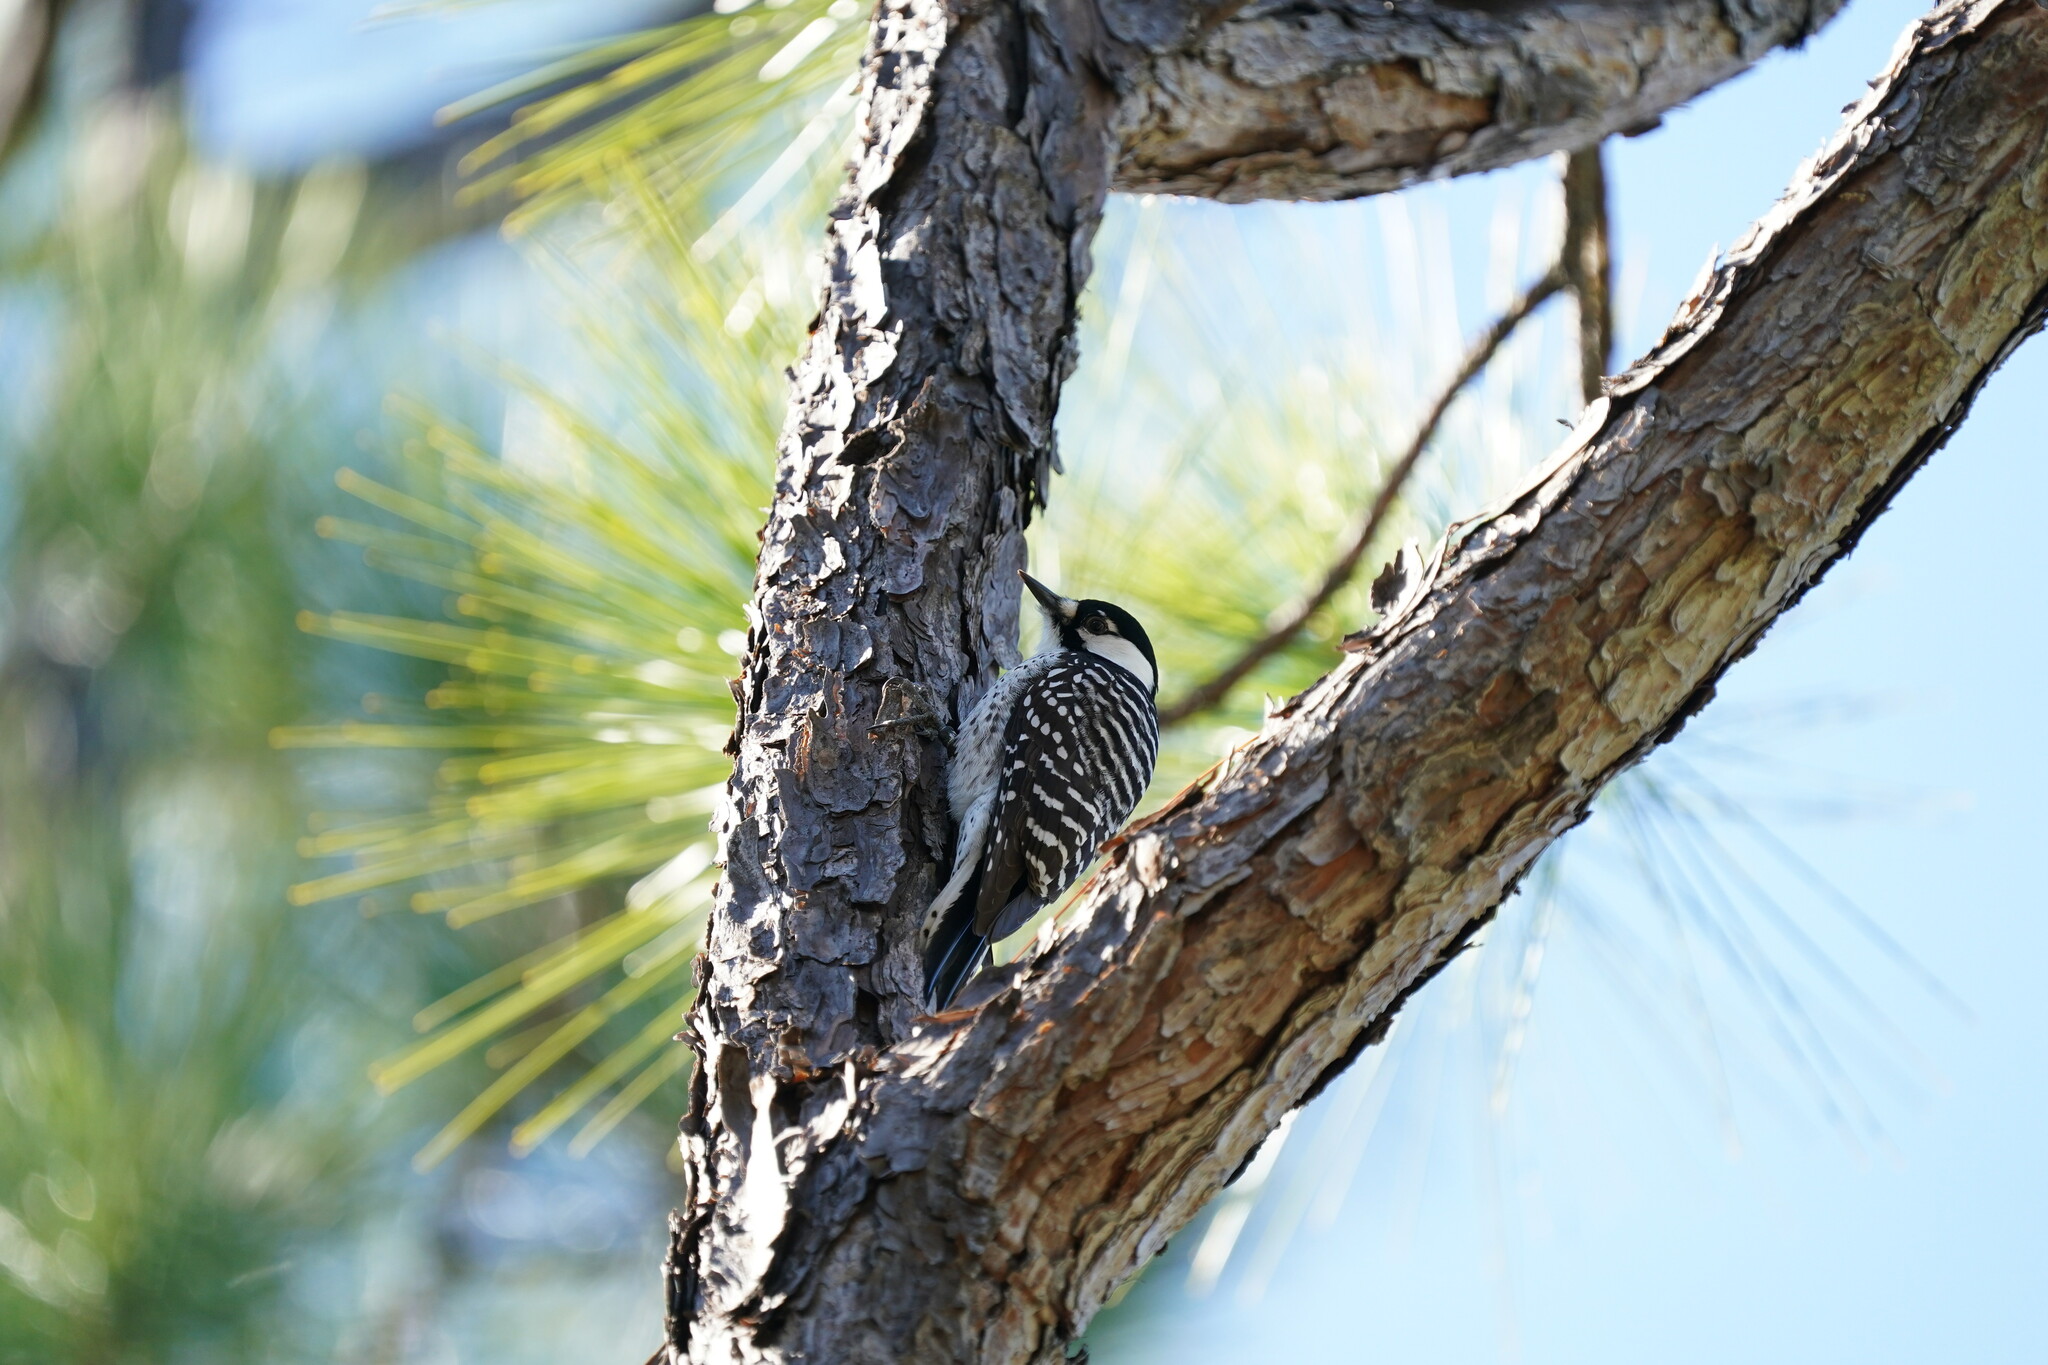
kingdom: Animalia
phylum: Chordata
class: Aves
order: Piciformes
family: Picidae
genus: Leuconotopicus
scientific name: Leuconotopicus borealis
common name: Red-cockaded woodpecker
